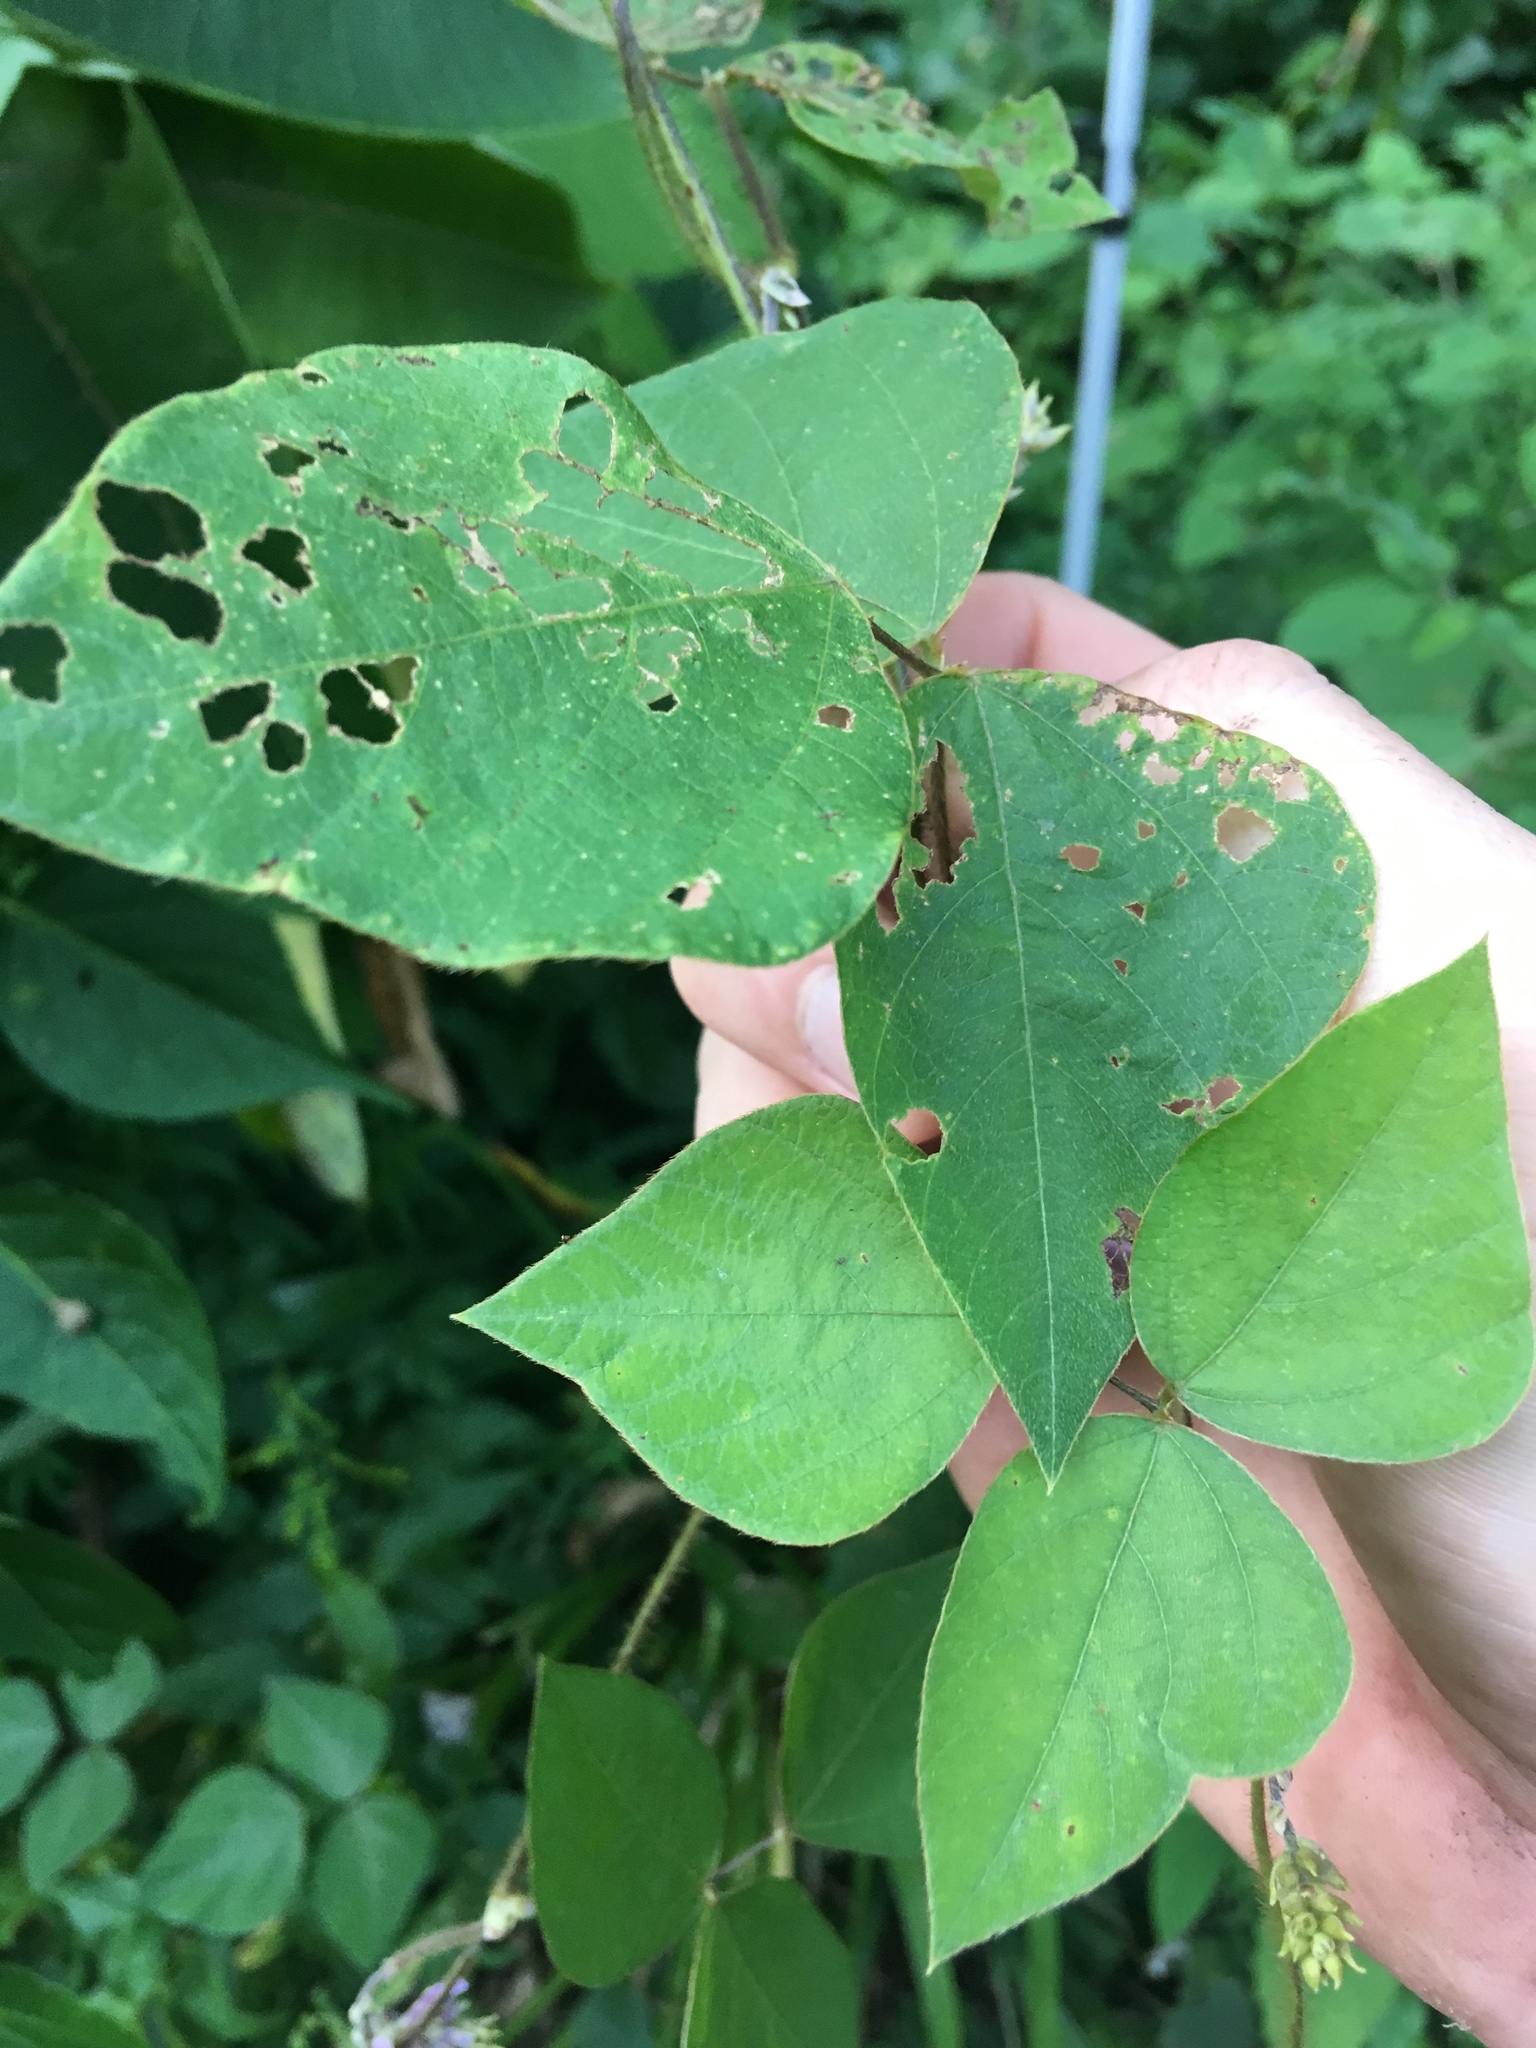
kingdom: Plantae
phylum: Tracheophyta
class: Magnoliopsida
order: Fabales
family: Fabaceae
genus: Amphicarpaea
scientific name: Amphicarpaea bracteata
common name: American hog peanut
